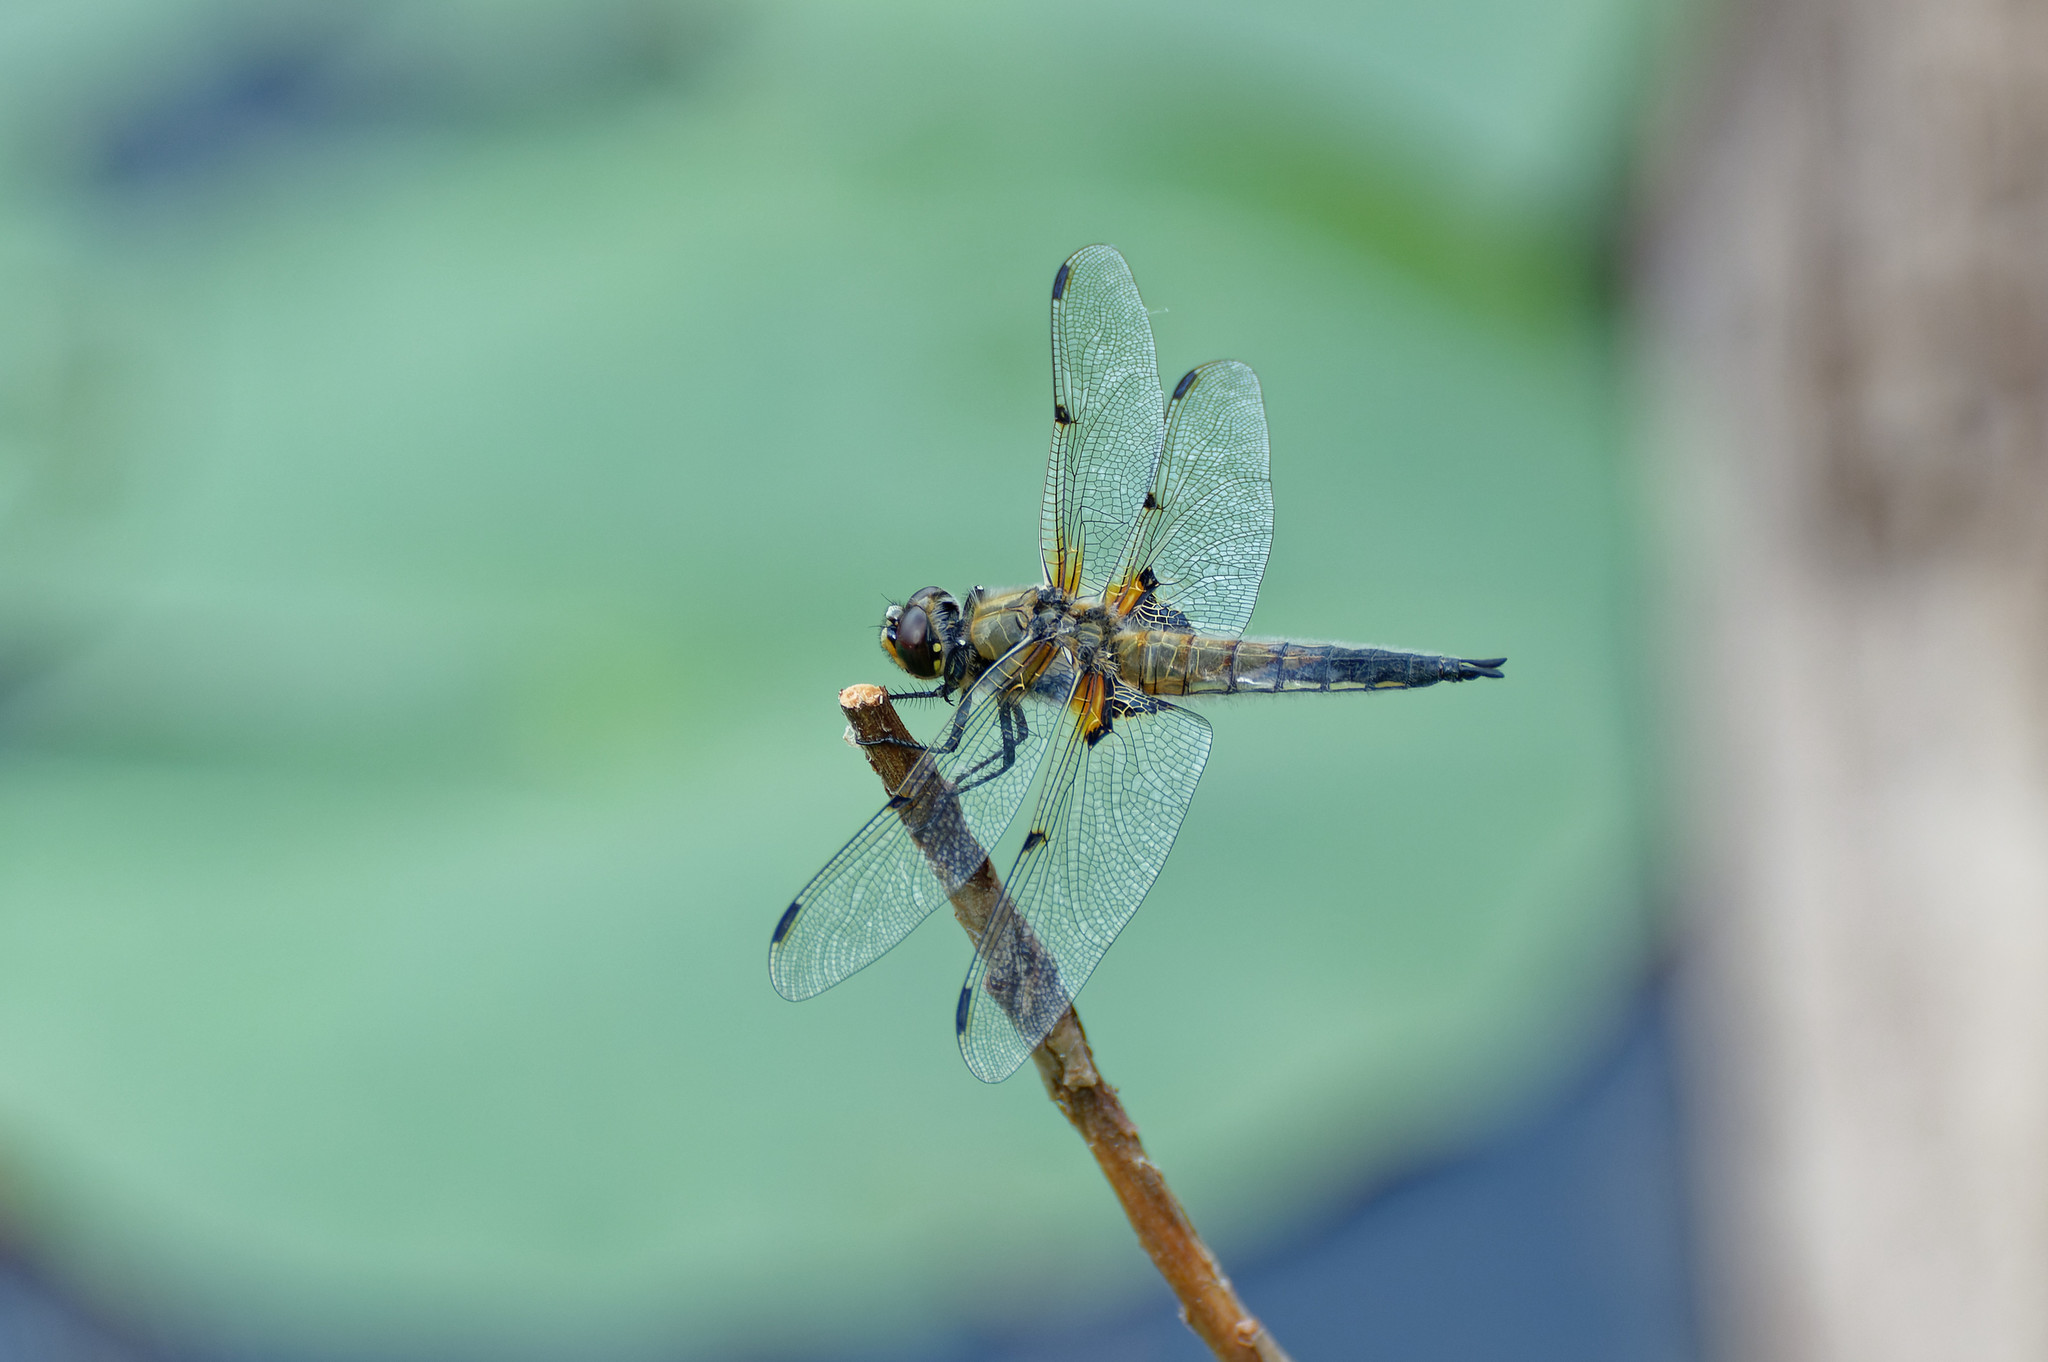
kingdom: Animalia
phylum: Arthropoda
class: Insecta
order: Odonata
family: Libellulidae
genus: Libellula
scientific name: Libellula quadrimaculata
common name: Four-spotted chaser
